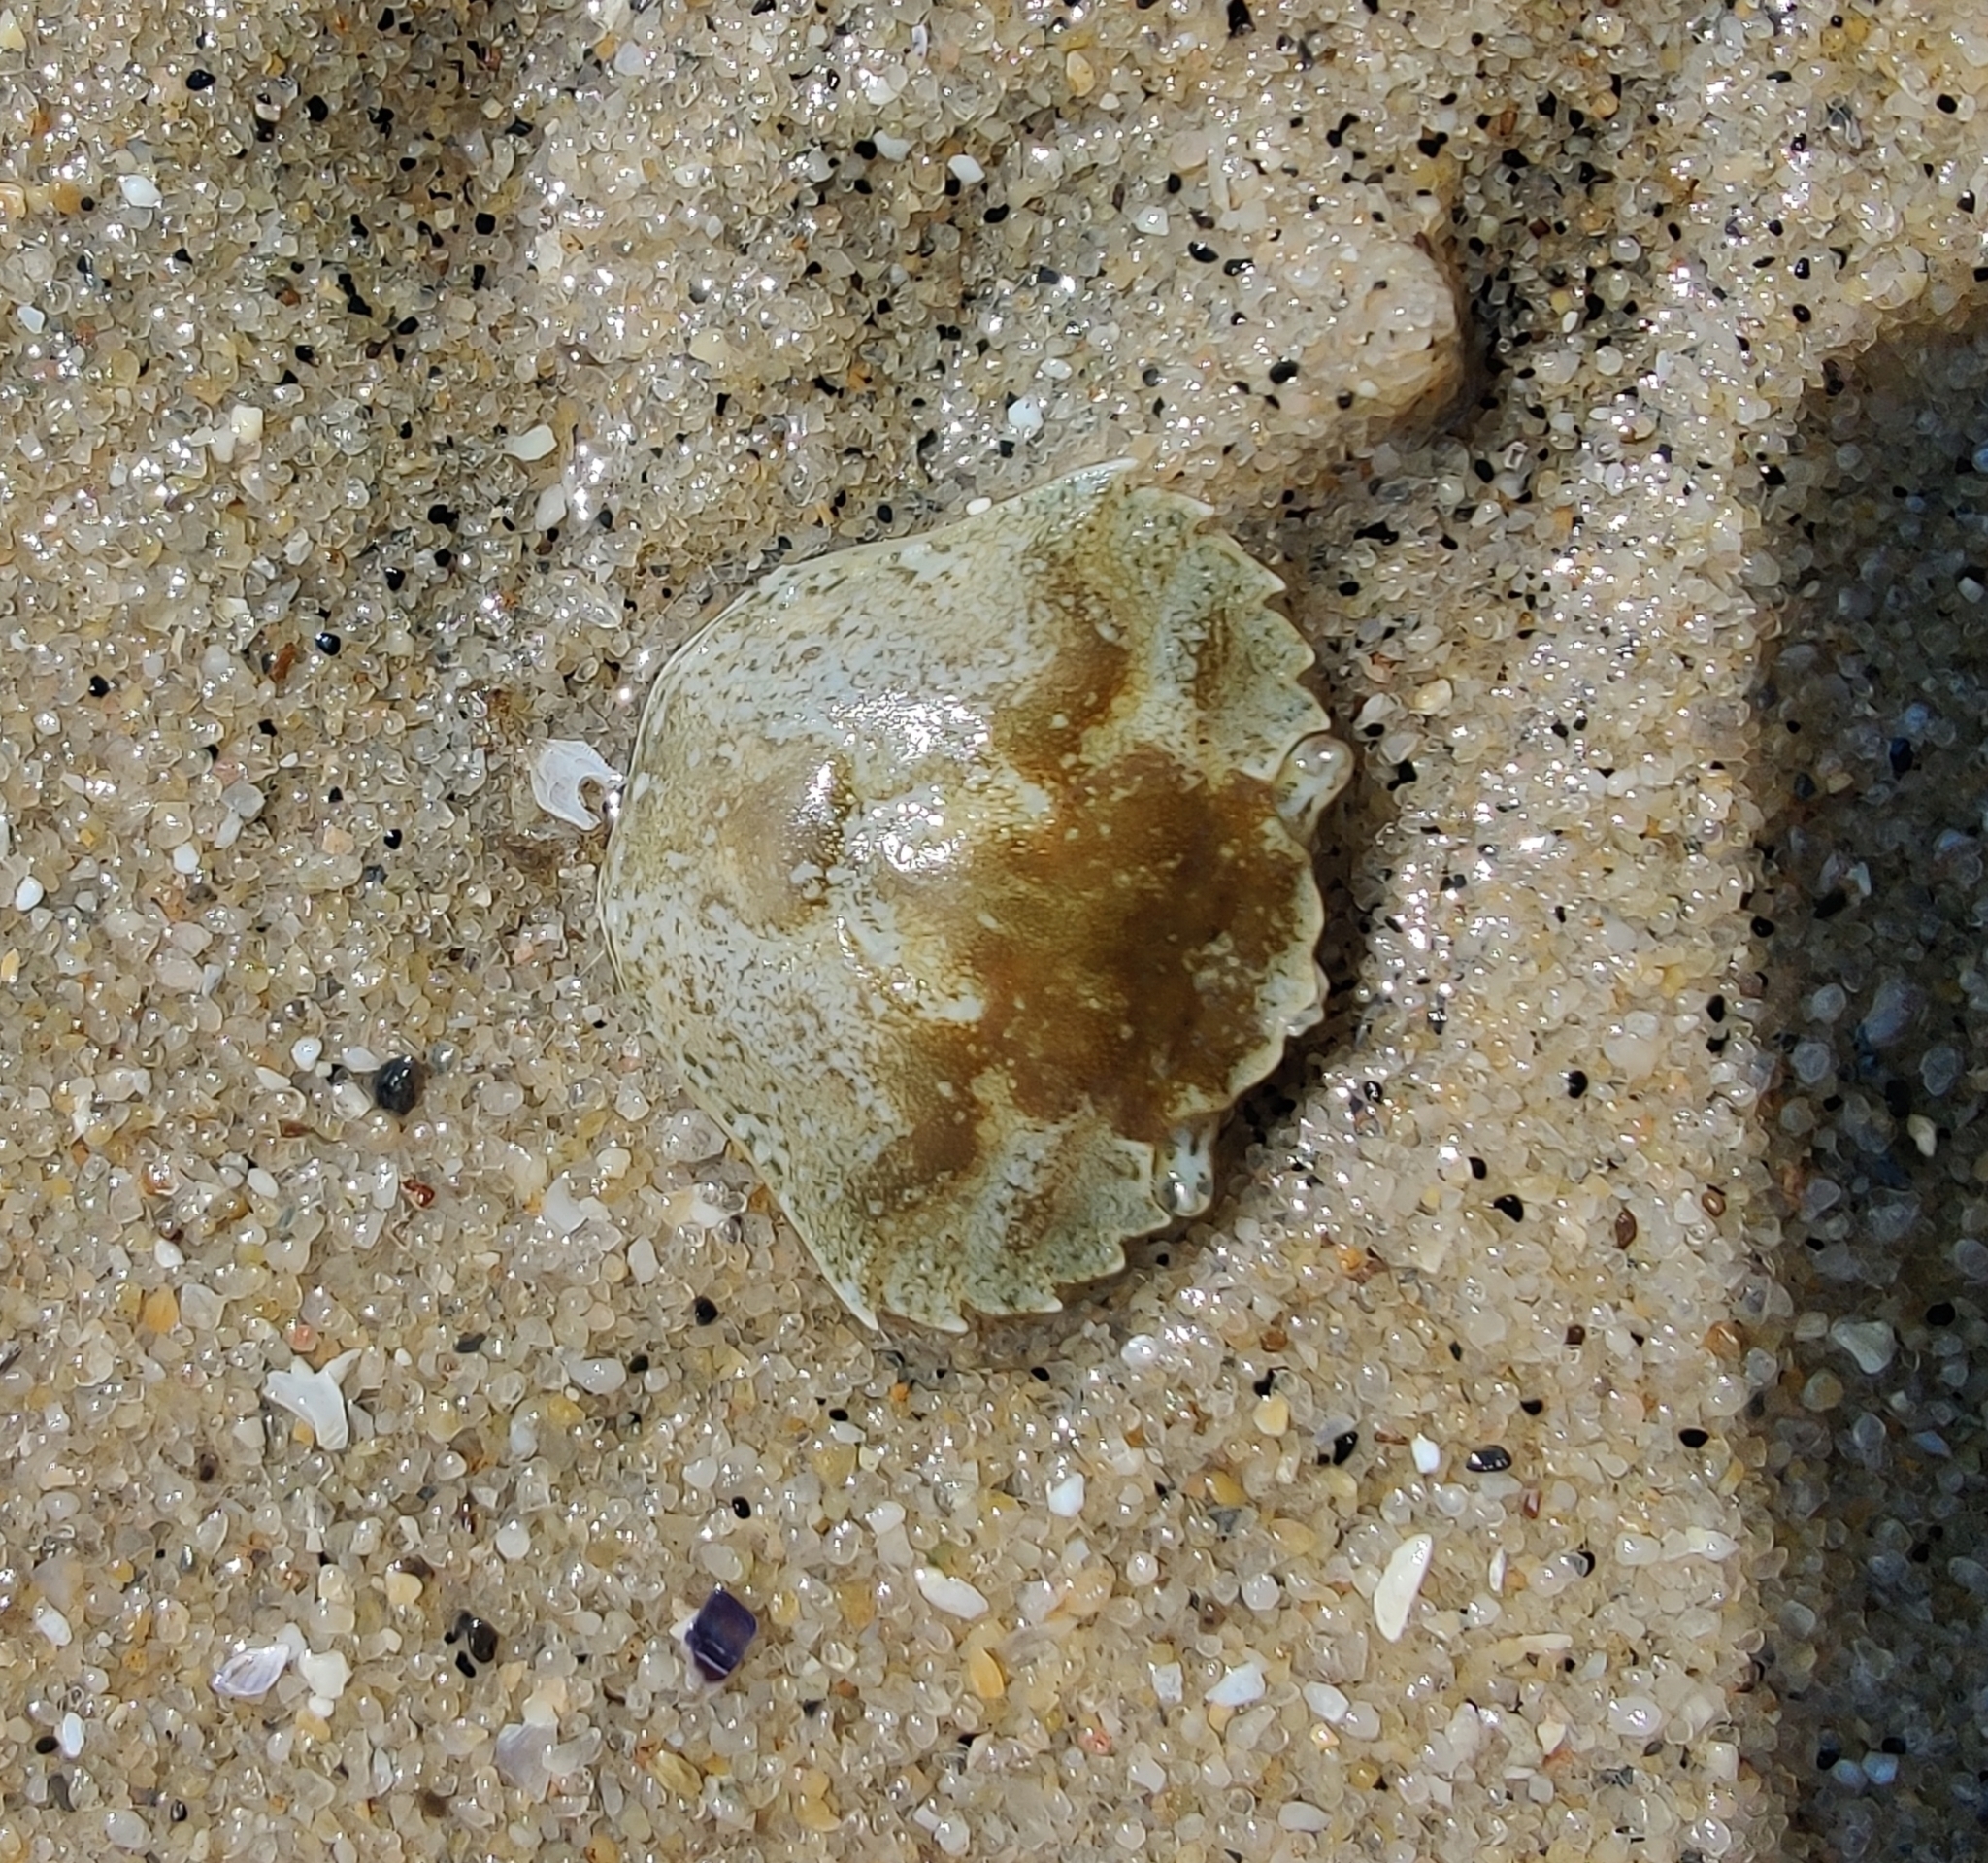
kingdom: Animalia
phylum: Arthropoda
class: Malacostraca
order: Decapoda
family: Carcinidae
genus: Carcinus
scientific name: Carcinus maenas
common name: European green crab
